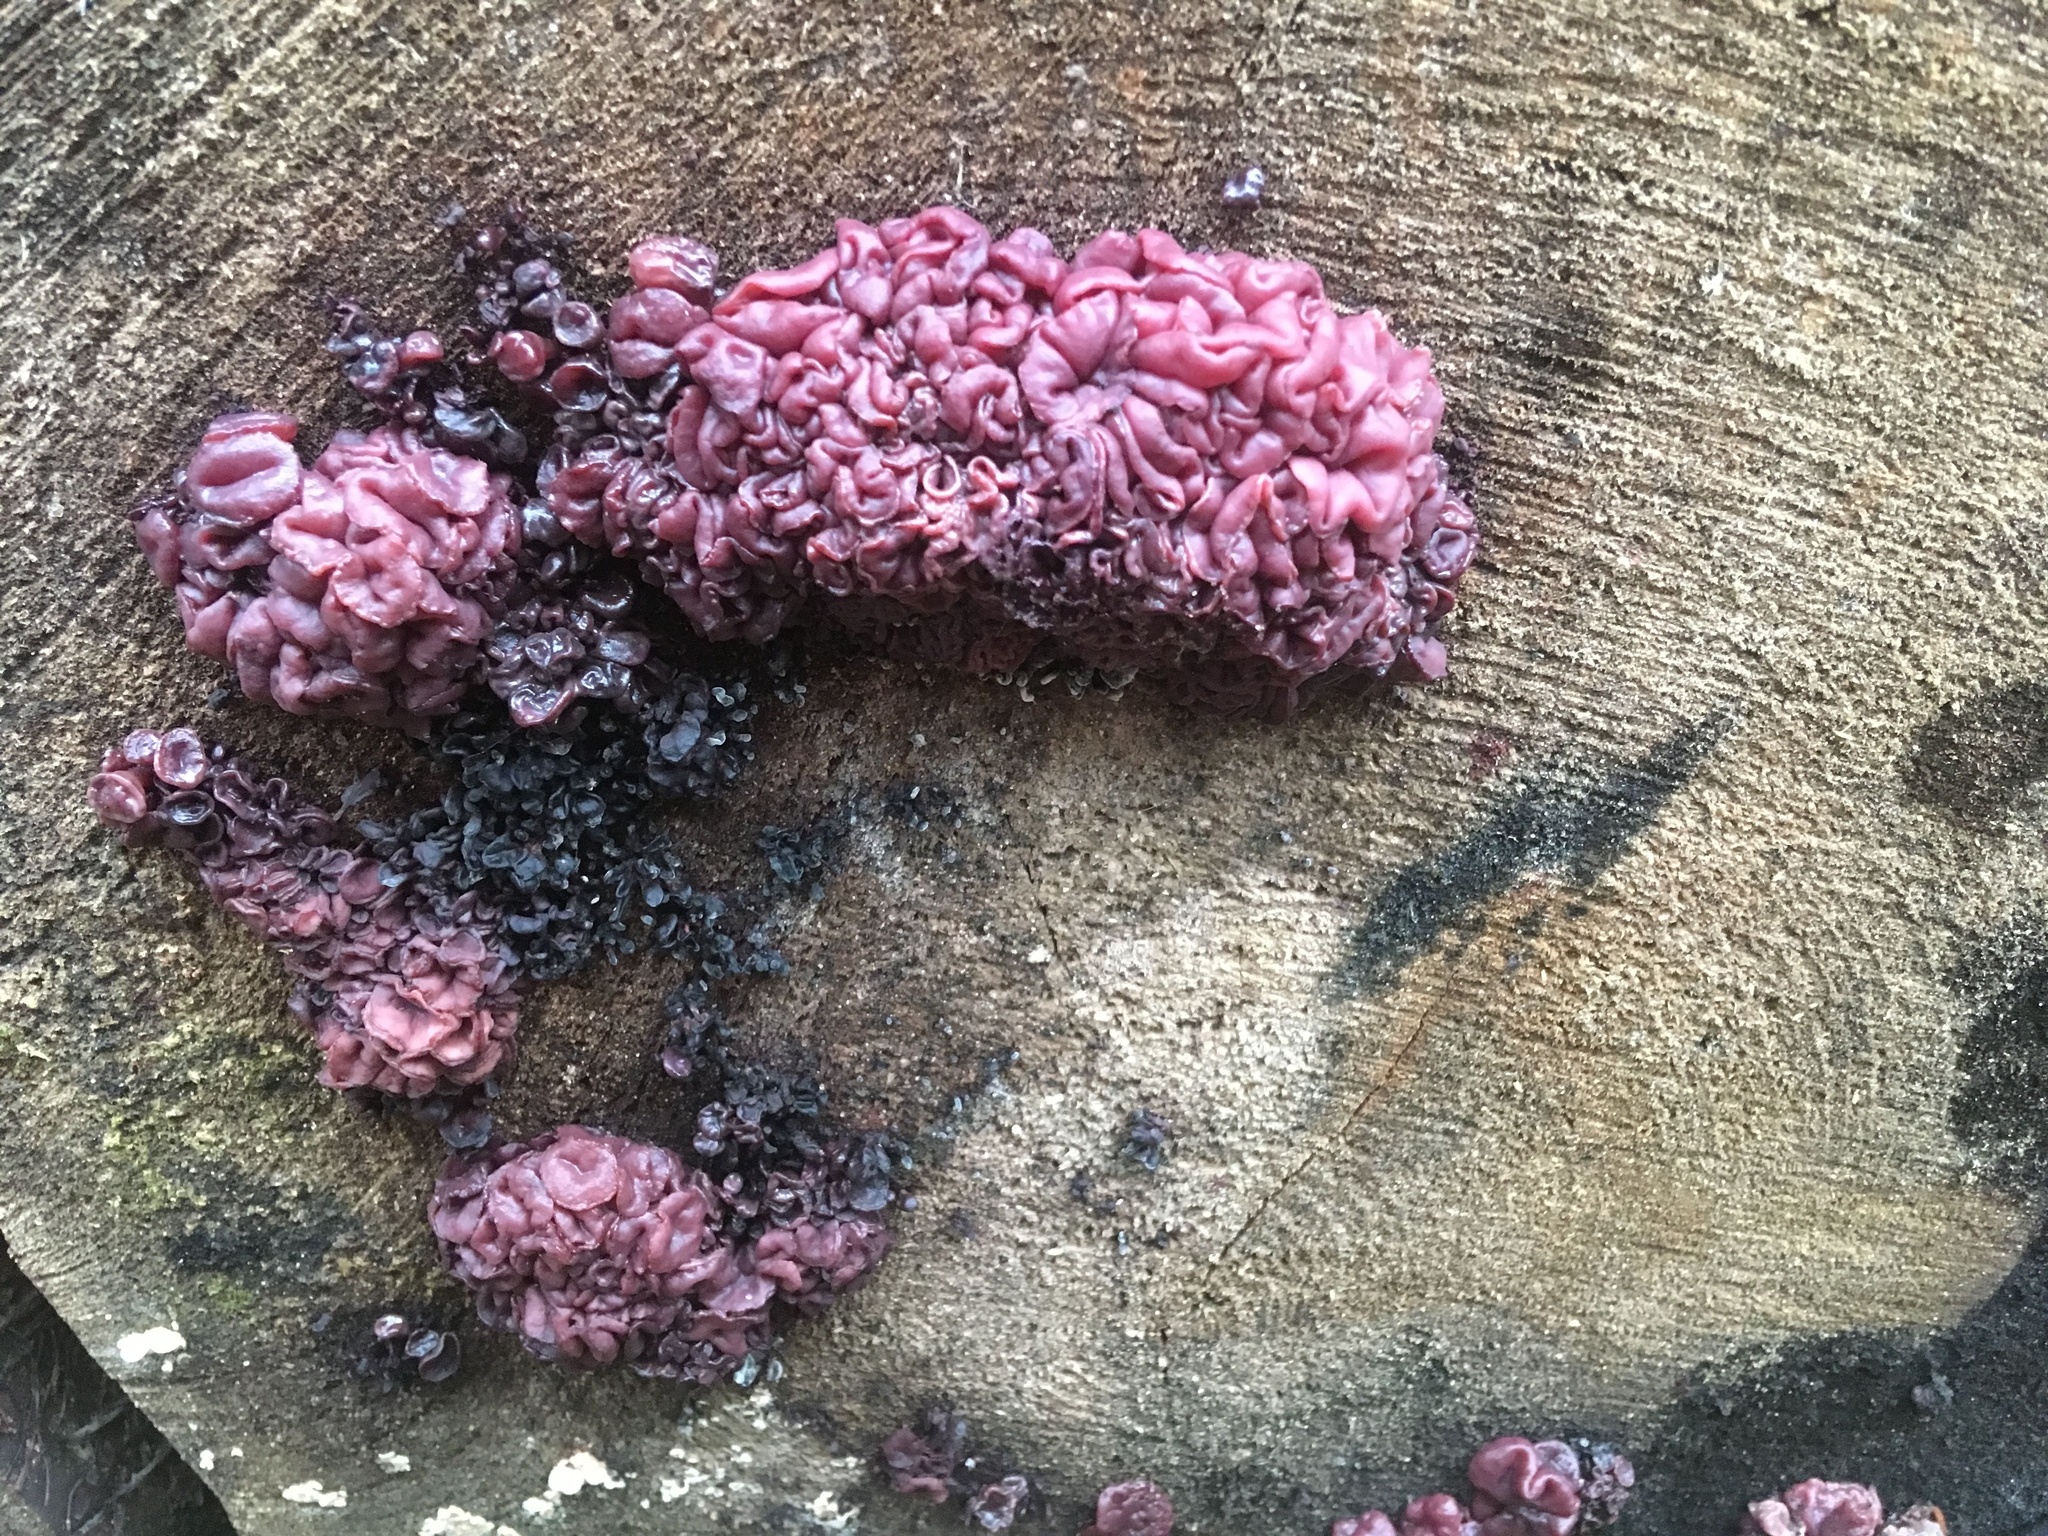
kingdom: Fungi
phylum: Ascomycota
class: Leotiomycetes
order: Helotiales
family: Gelatinodiscaceae
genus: Ascocoryne
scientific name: Ascocoryne sarcoides
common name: Purple jellydisc
